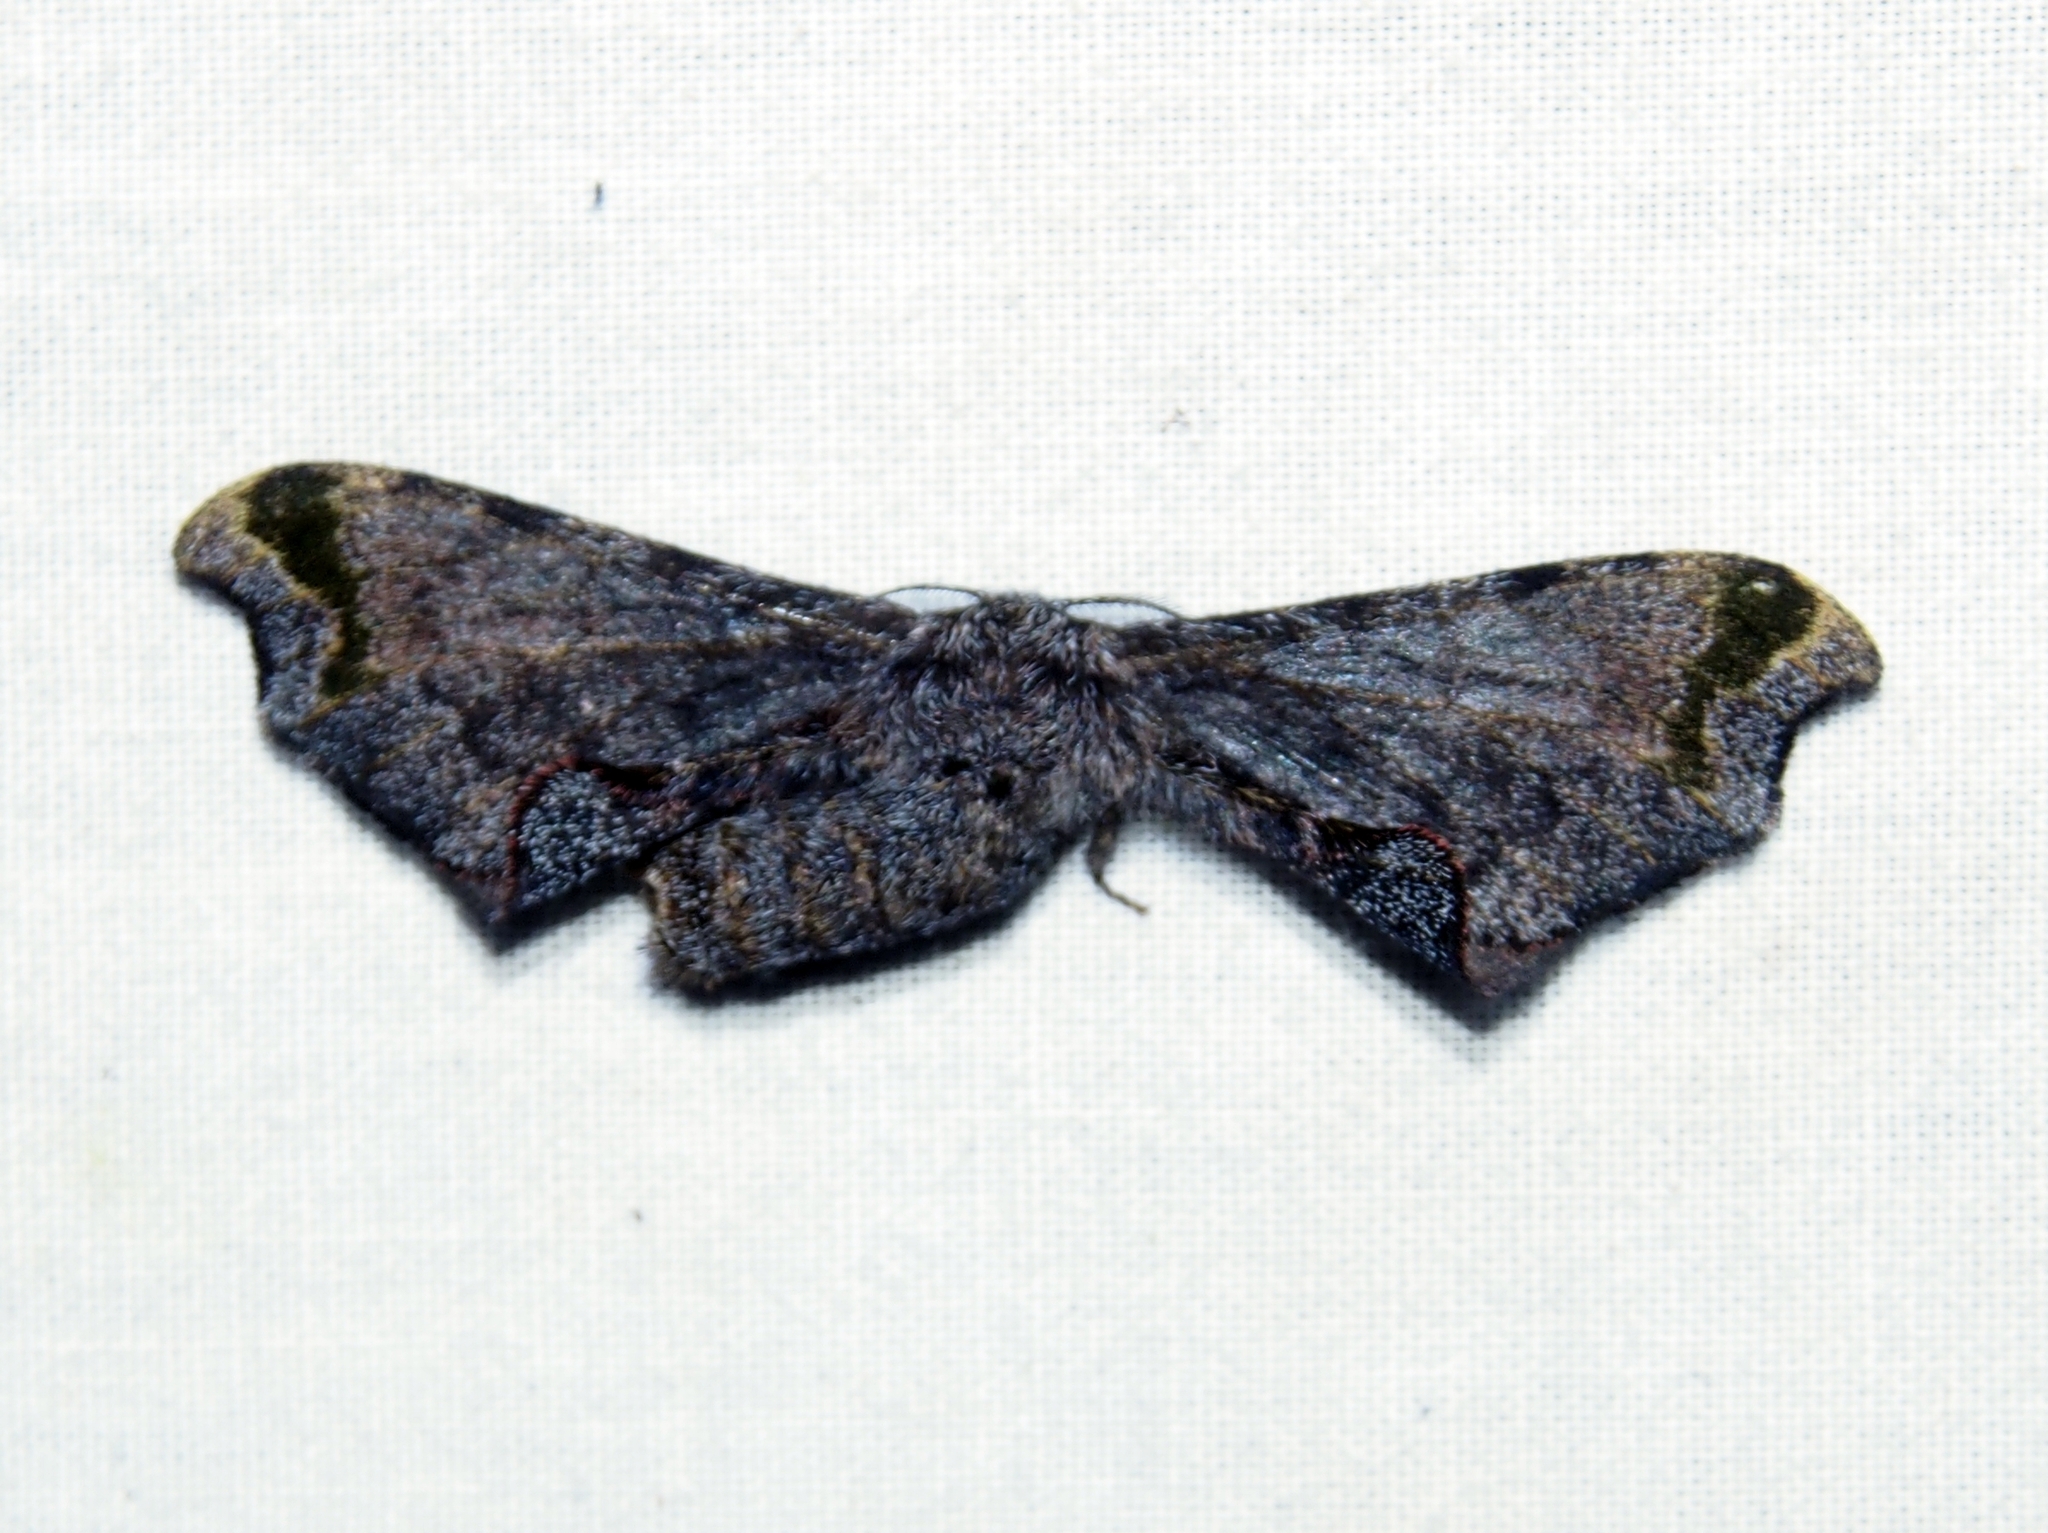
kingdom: Animalia
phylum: Arthropoda
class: Insecta
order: Lepidoptera
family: Bombycidae
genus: Quentalia
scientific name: Quentalia ephonia
